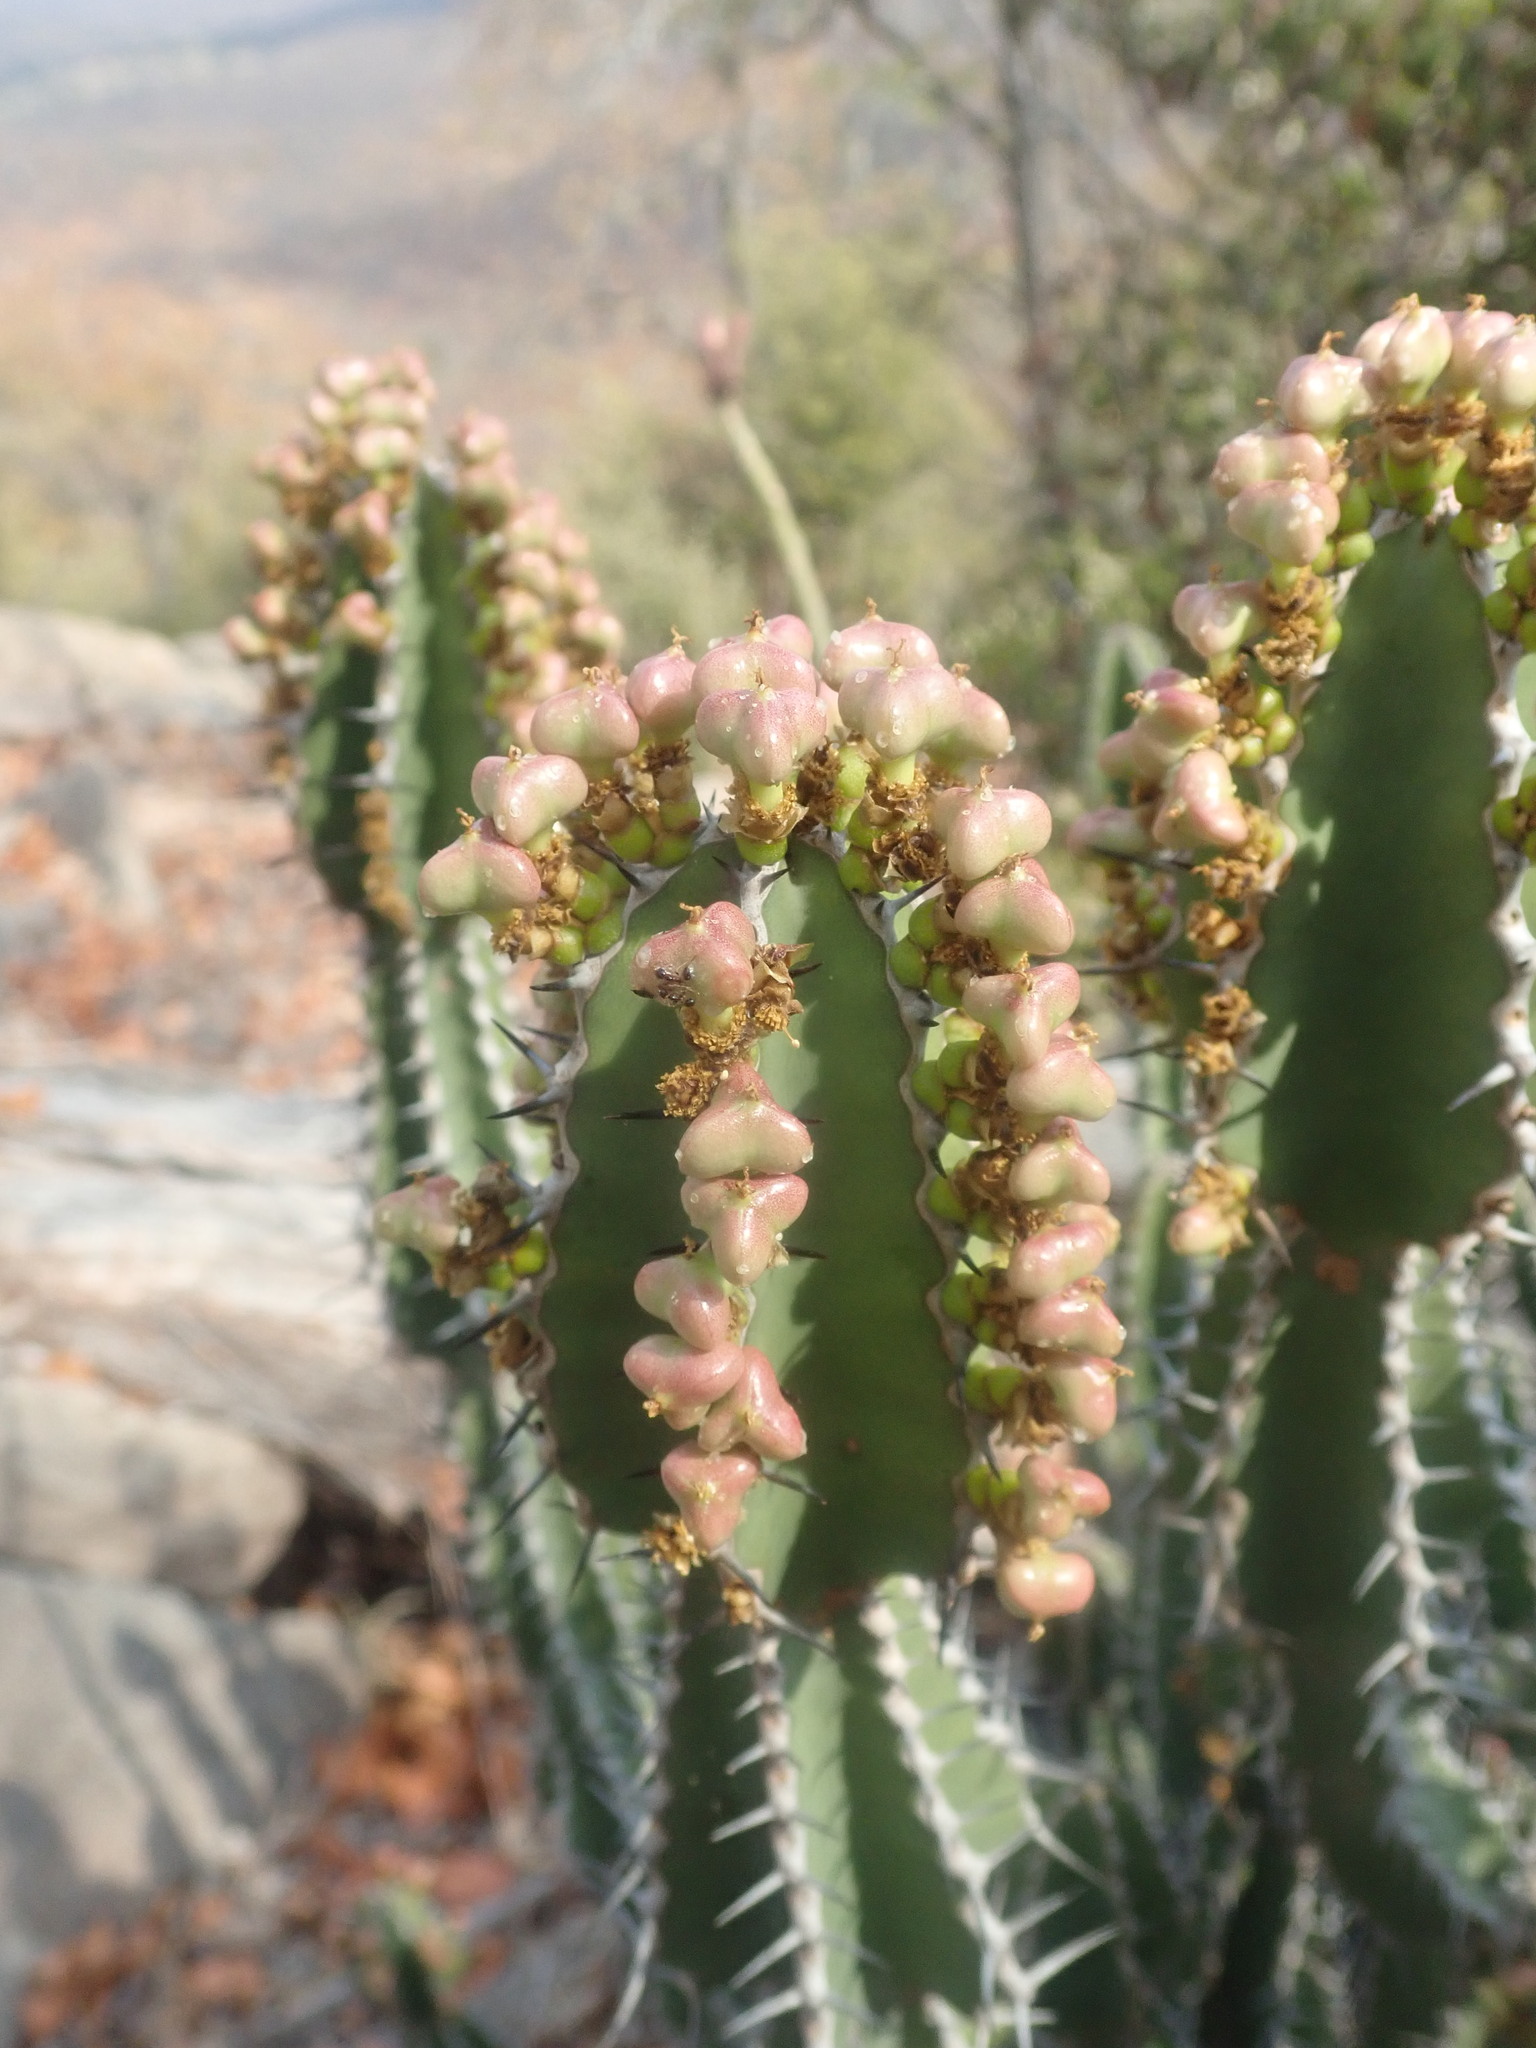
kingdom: Plantae
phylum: Tracheophyta
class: Magnoliopsida
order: Malpighiales
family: Euphorbiaceae
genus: Euphorbia
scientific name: Euphorbia rowlandii
